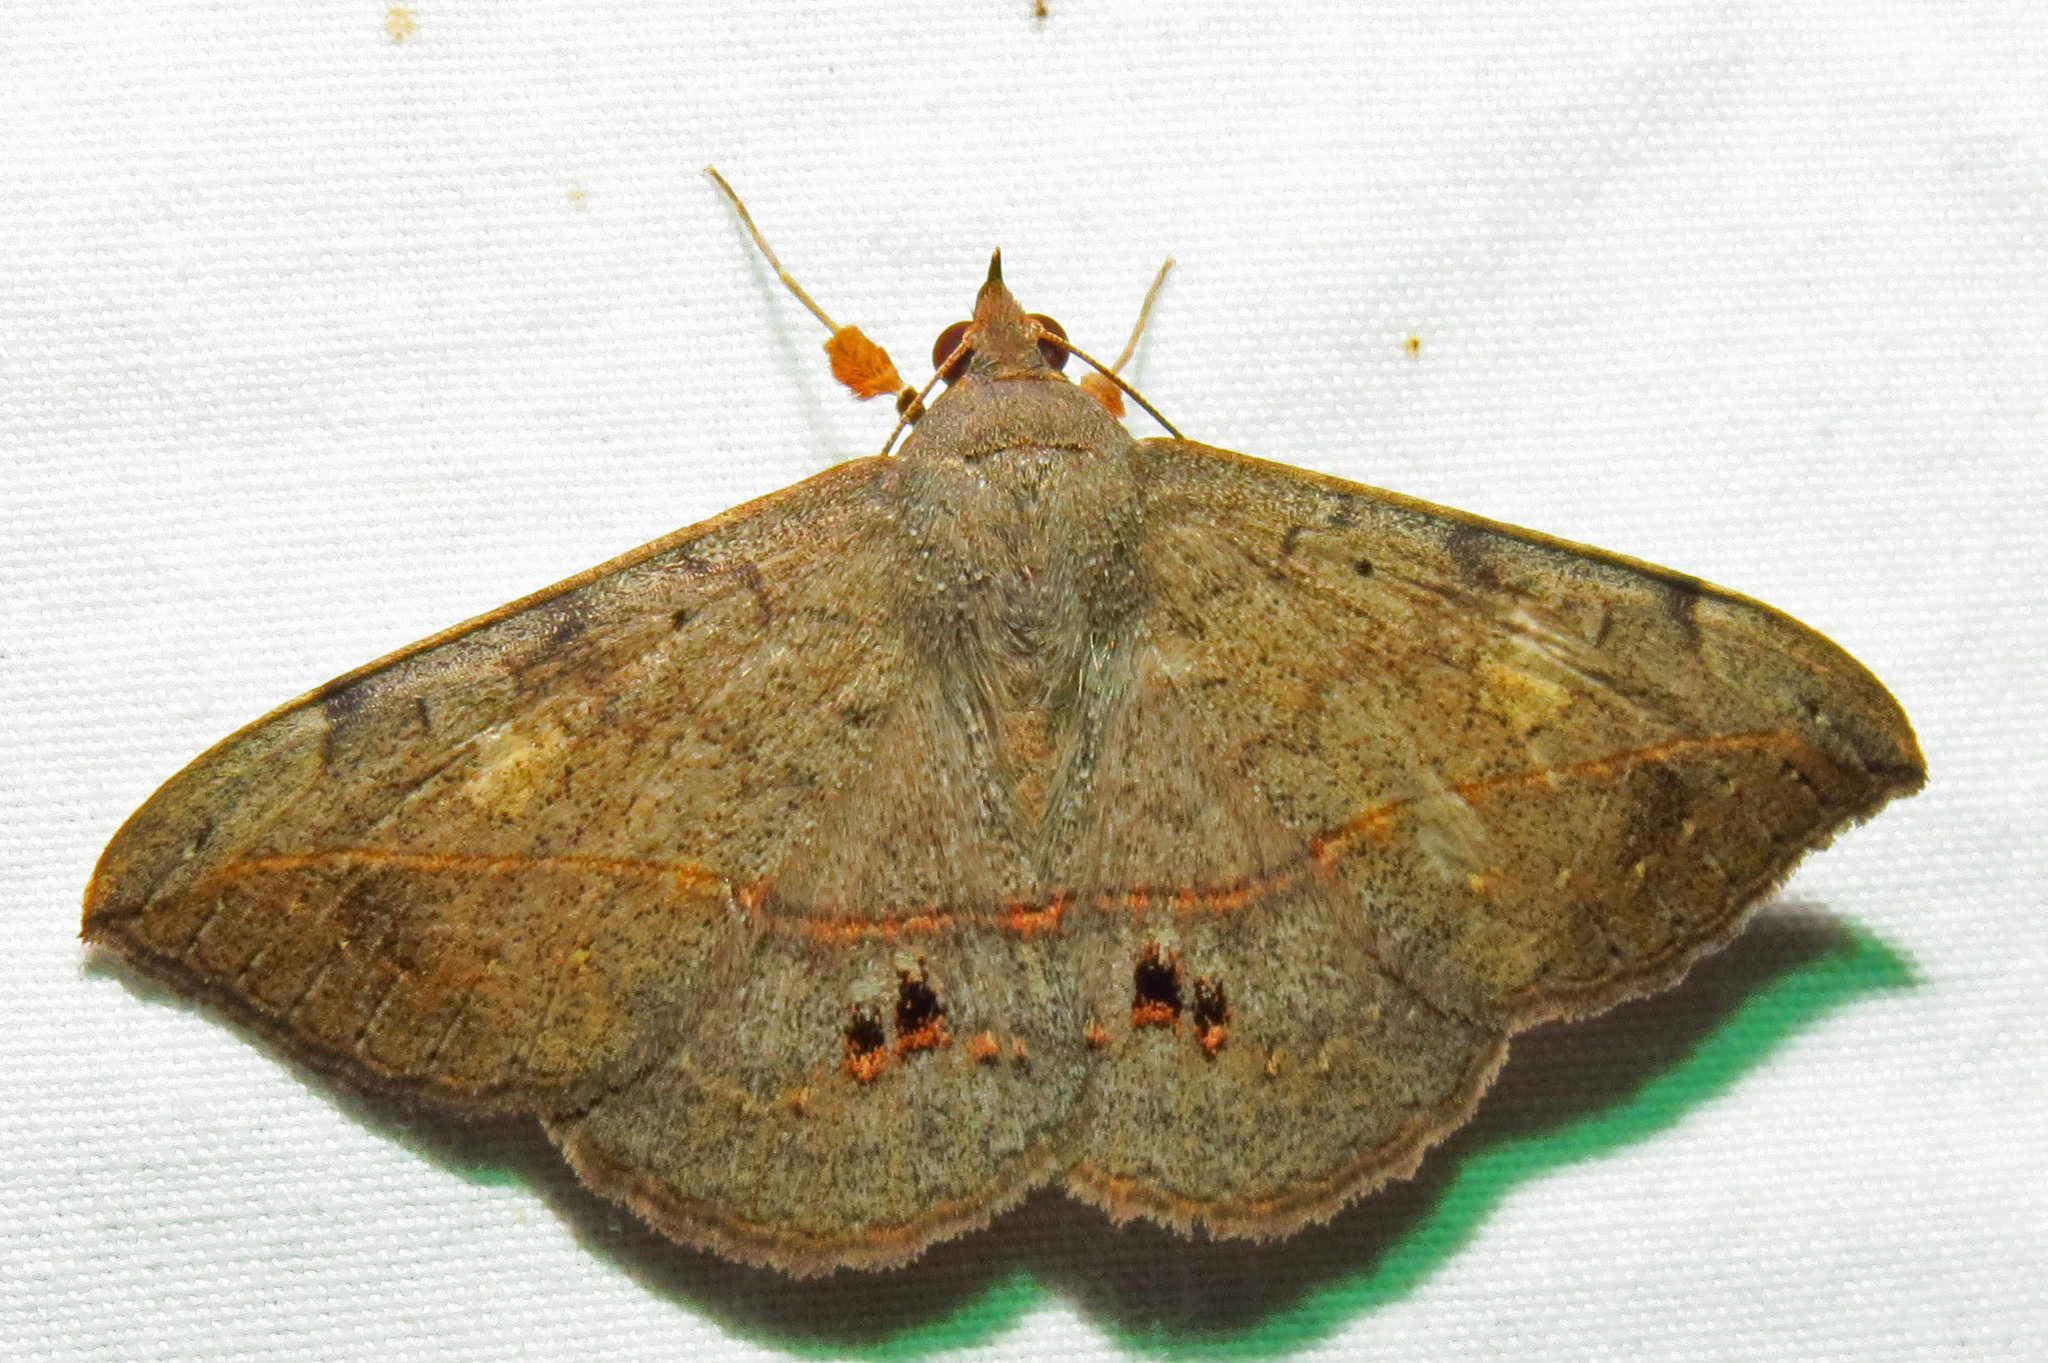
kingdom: Animalia
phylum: Arthropoda
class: Insecta
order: Lepidoptera
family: Erebidae
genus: Anticarsia
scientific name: Anticarsia gemmatalis
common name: Cutworm moth
